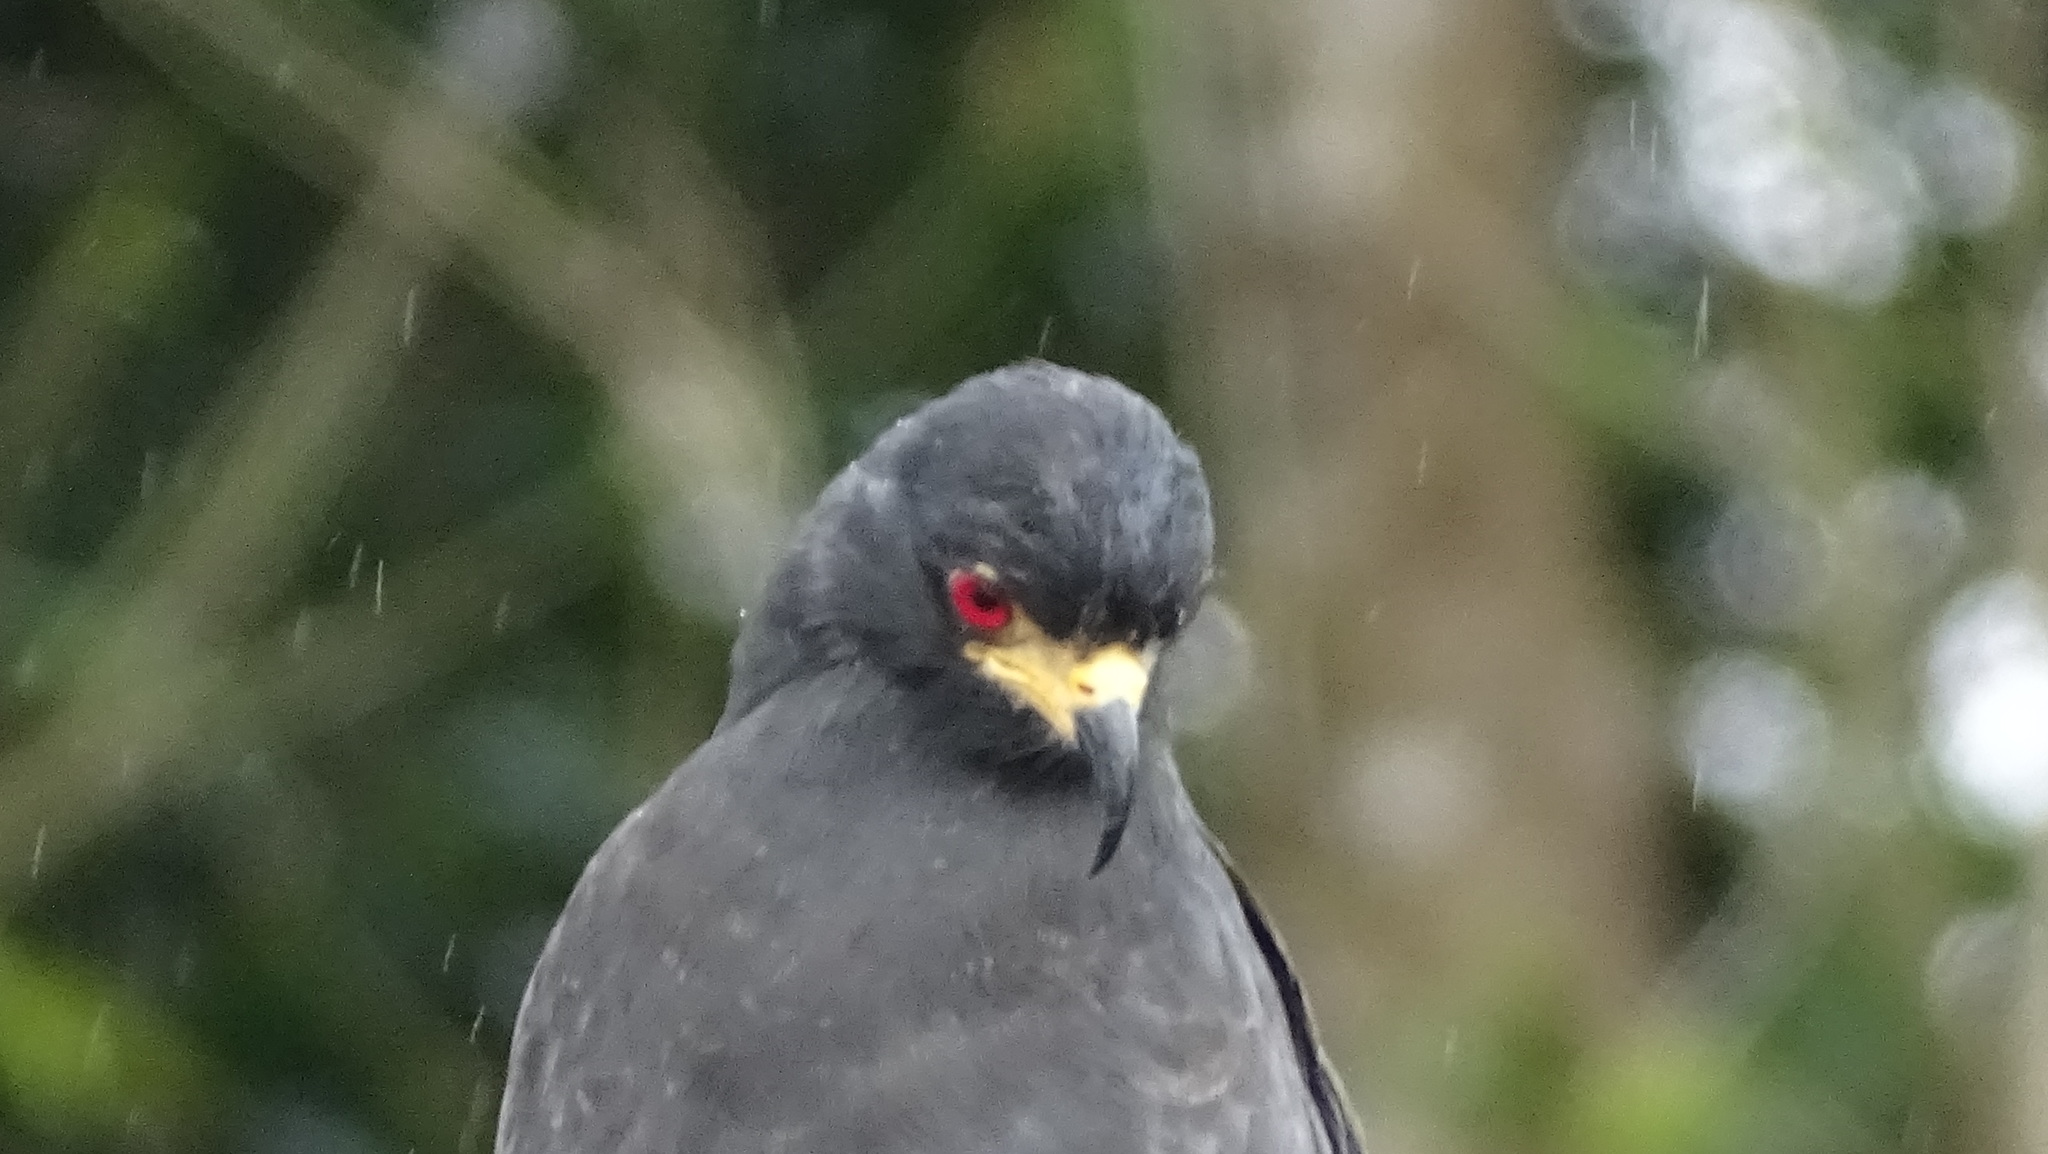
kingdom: Animalia
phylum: Chordata
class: Aves
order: Accipitriformes
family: Accipitridae
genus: Rostrhamus
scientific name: Rostrhamus sociabilis
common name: Snail kite
